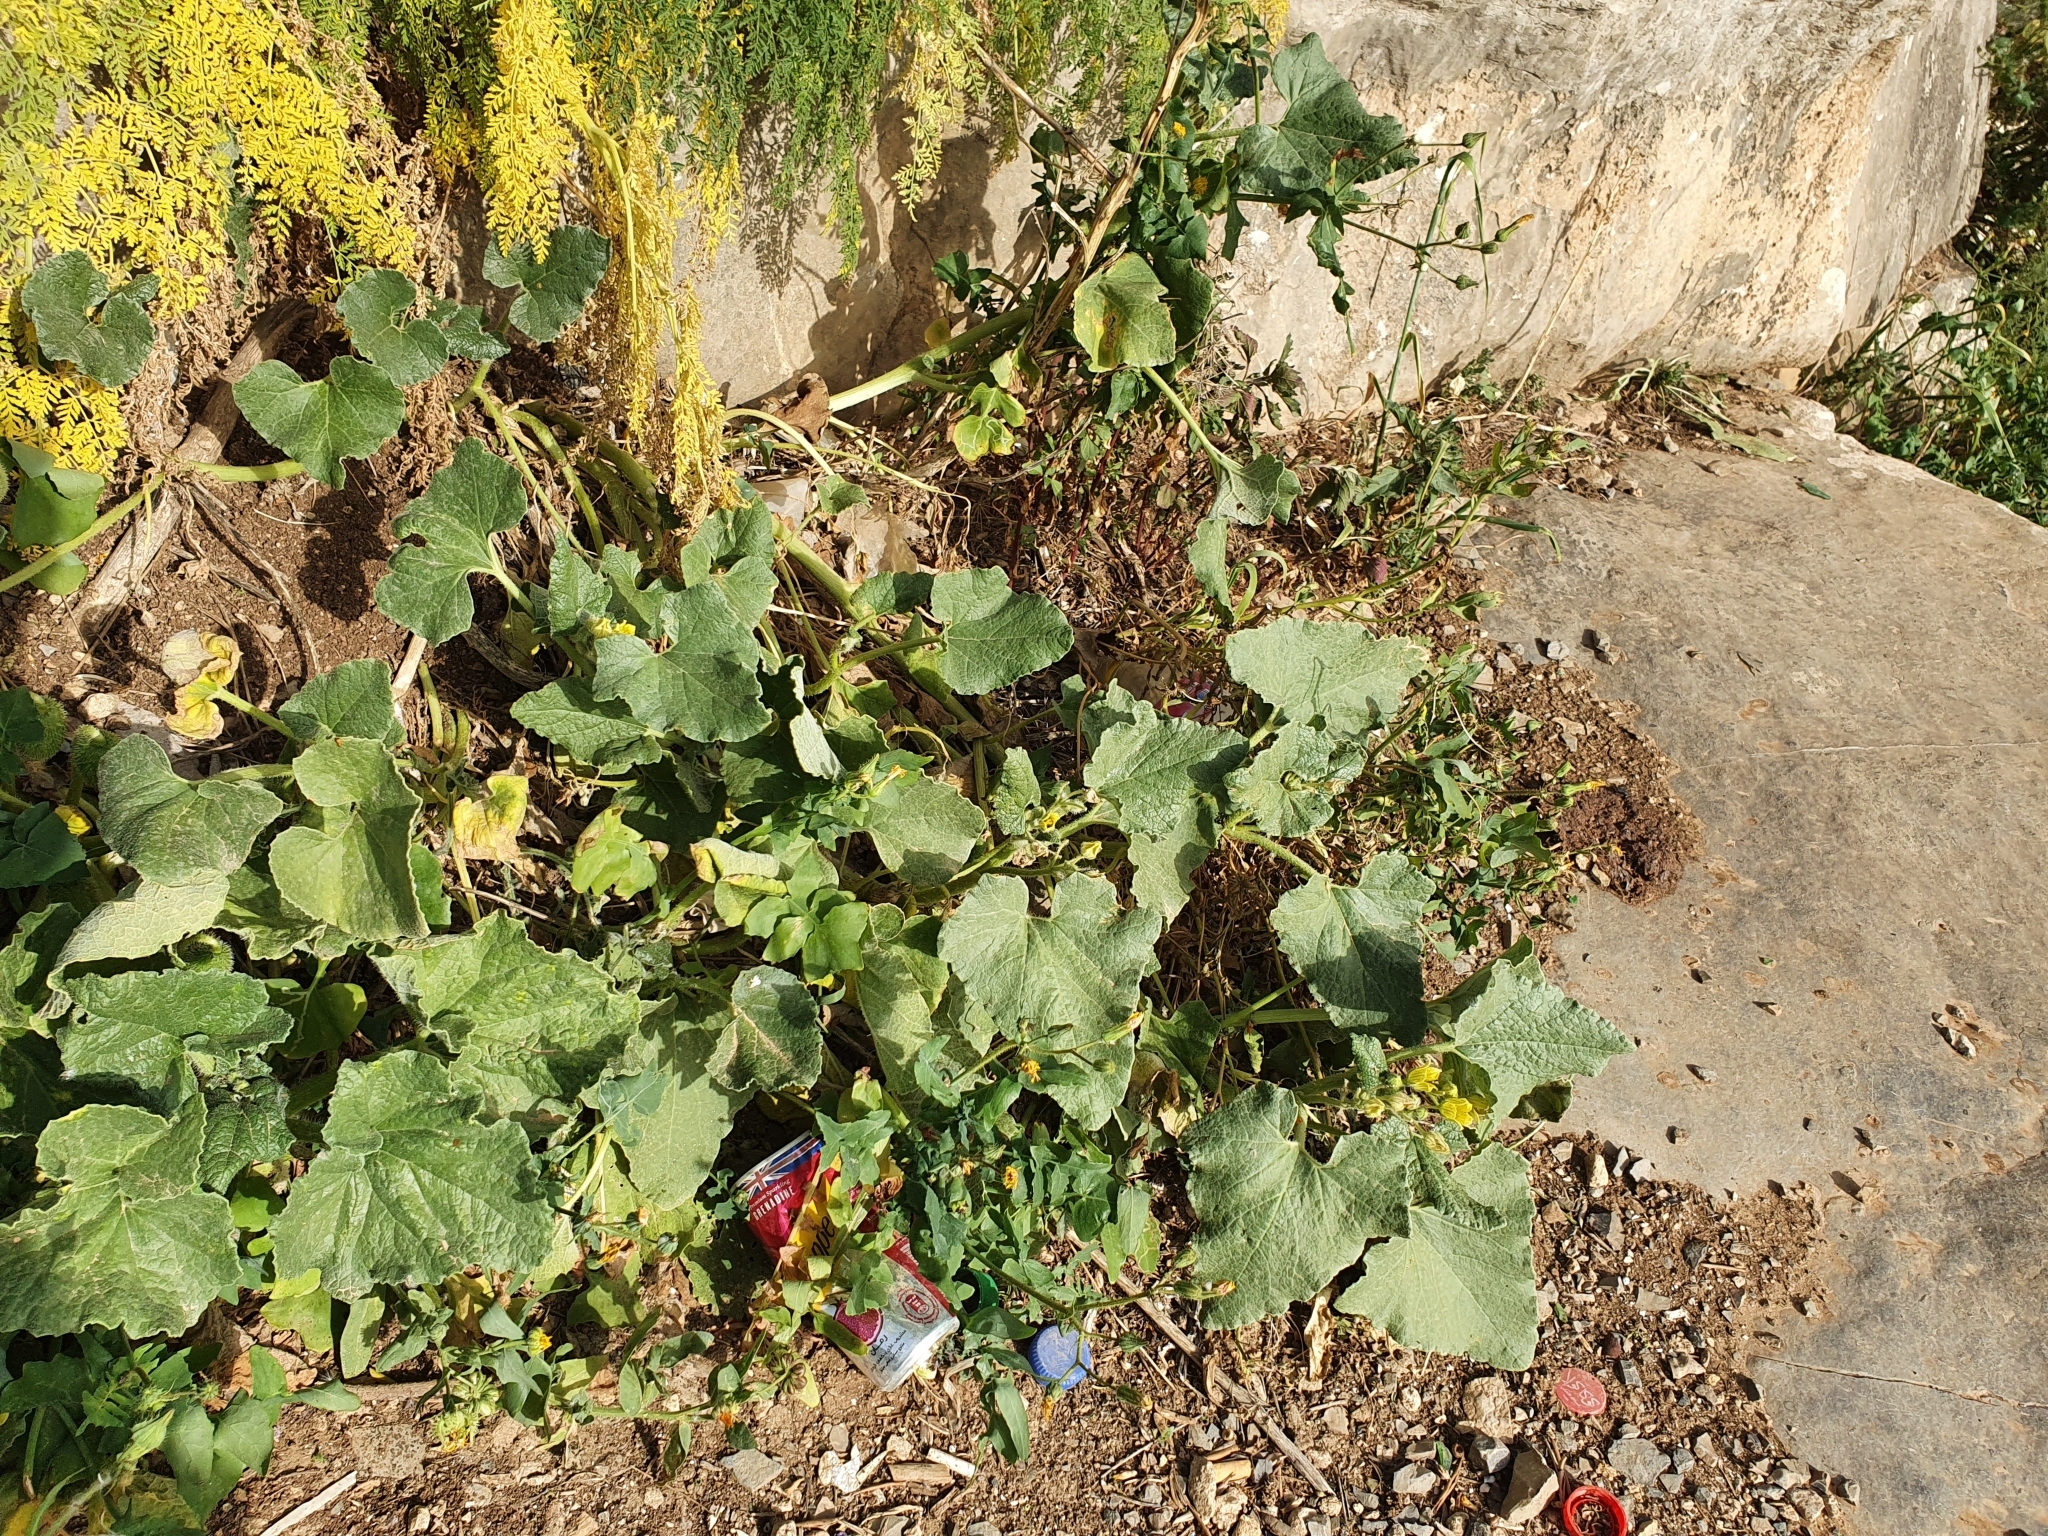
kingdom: Plantae
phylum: Tracheophyta
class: Magnoliopsida
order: Cucurbitales
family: Cucurbitaceae
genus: Ecballium
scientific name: Ecballium elaterium
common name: Squirting cucumber
